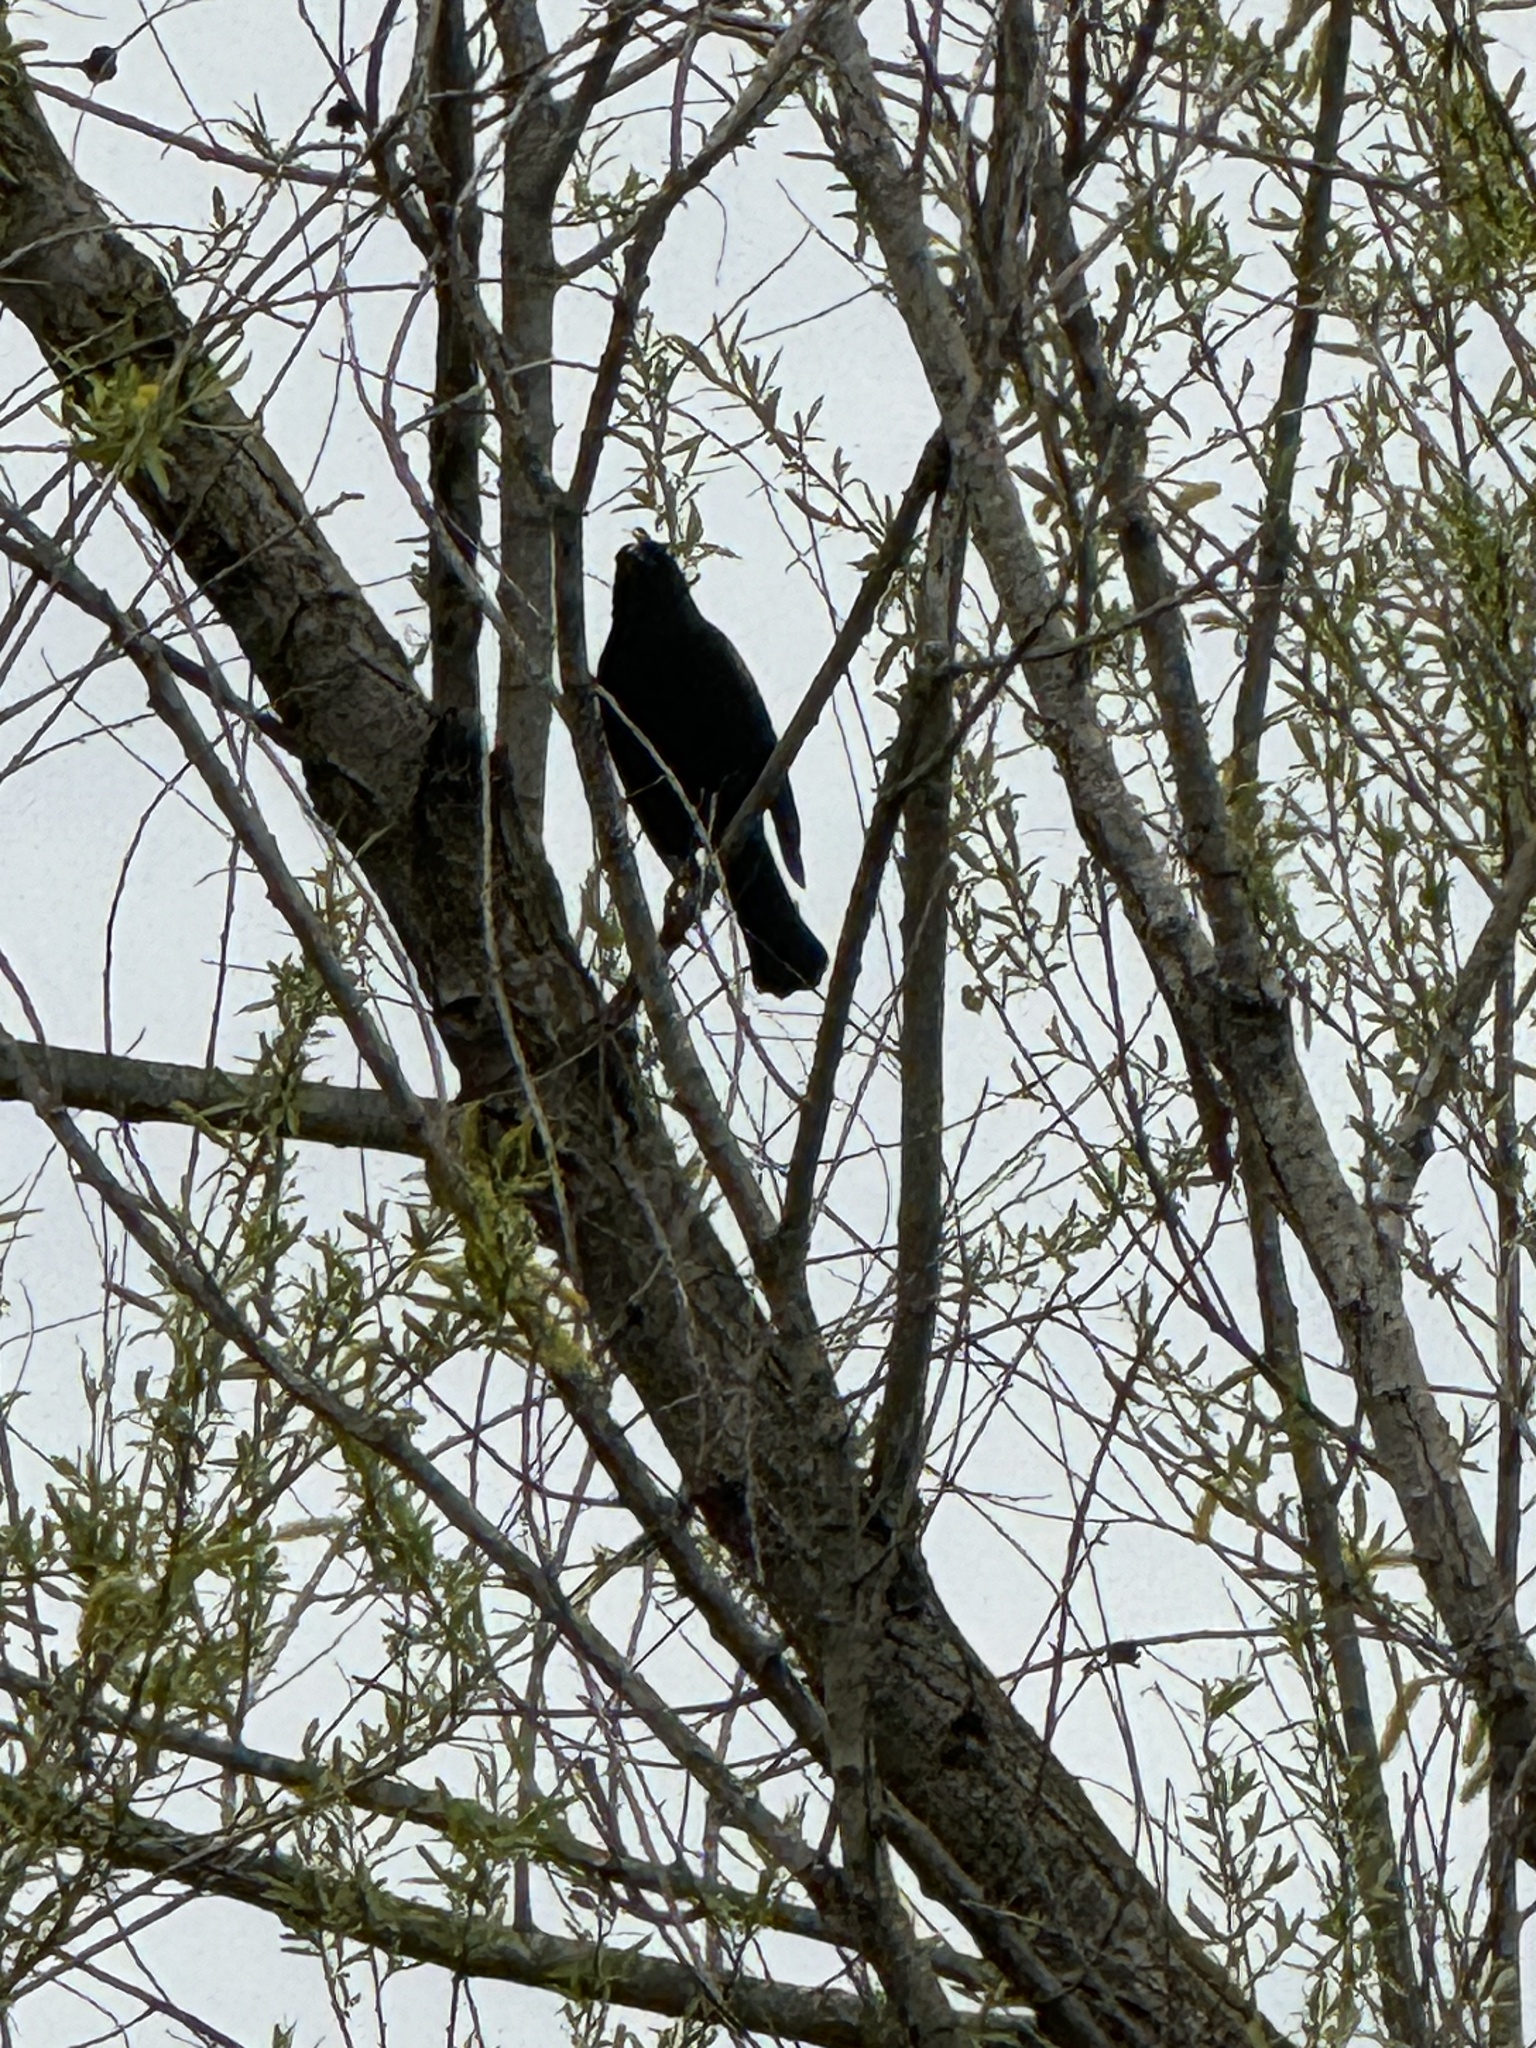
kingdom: Animalia
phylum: Chordata
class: Aves
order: Passeriformes
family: Icteridae
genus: Agelaius
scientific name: Agelaius phoeniceus
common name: Red-winged blackbird
